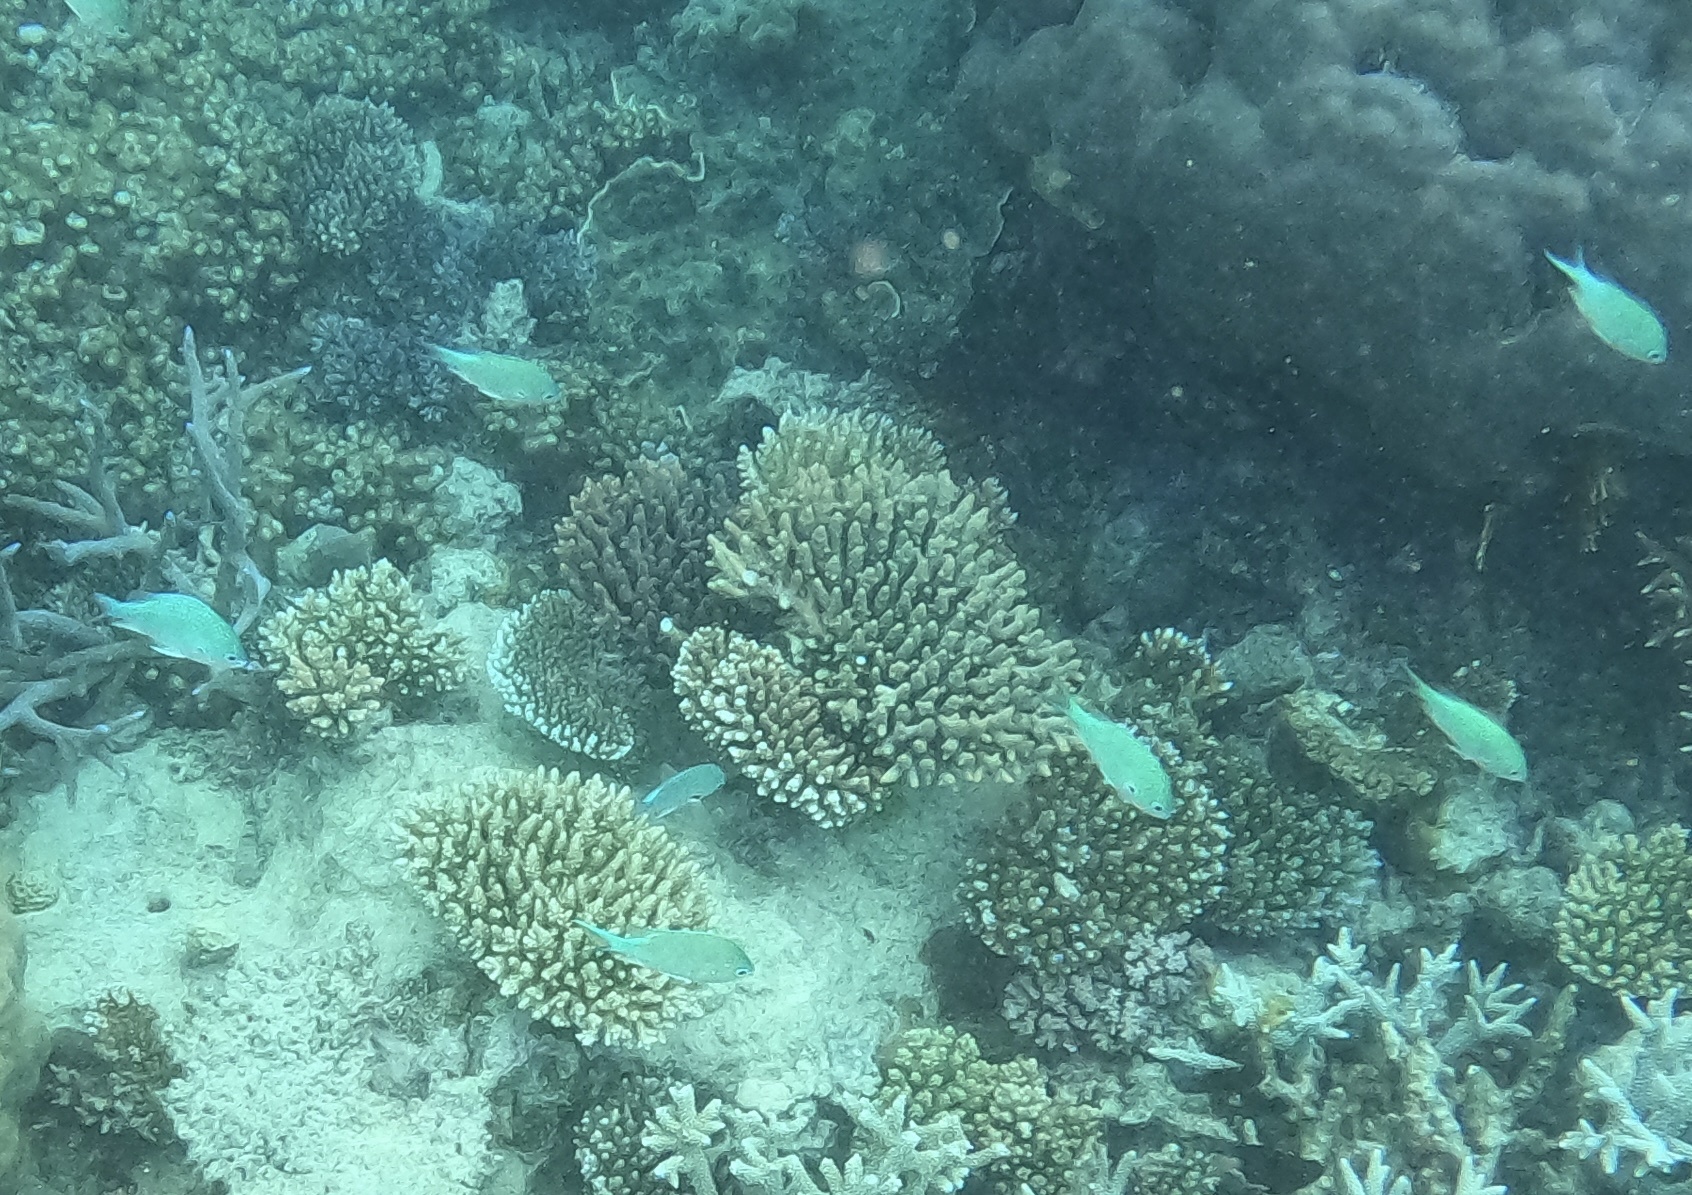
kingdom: Animalia
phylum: Chordata
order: Perciformes
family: Pomacentridae
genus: Chromis
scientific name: Chromis atripectoralis
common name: Black-axil chromis
